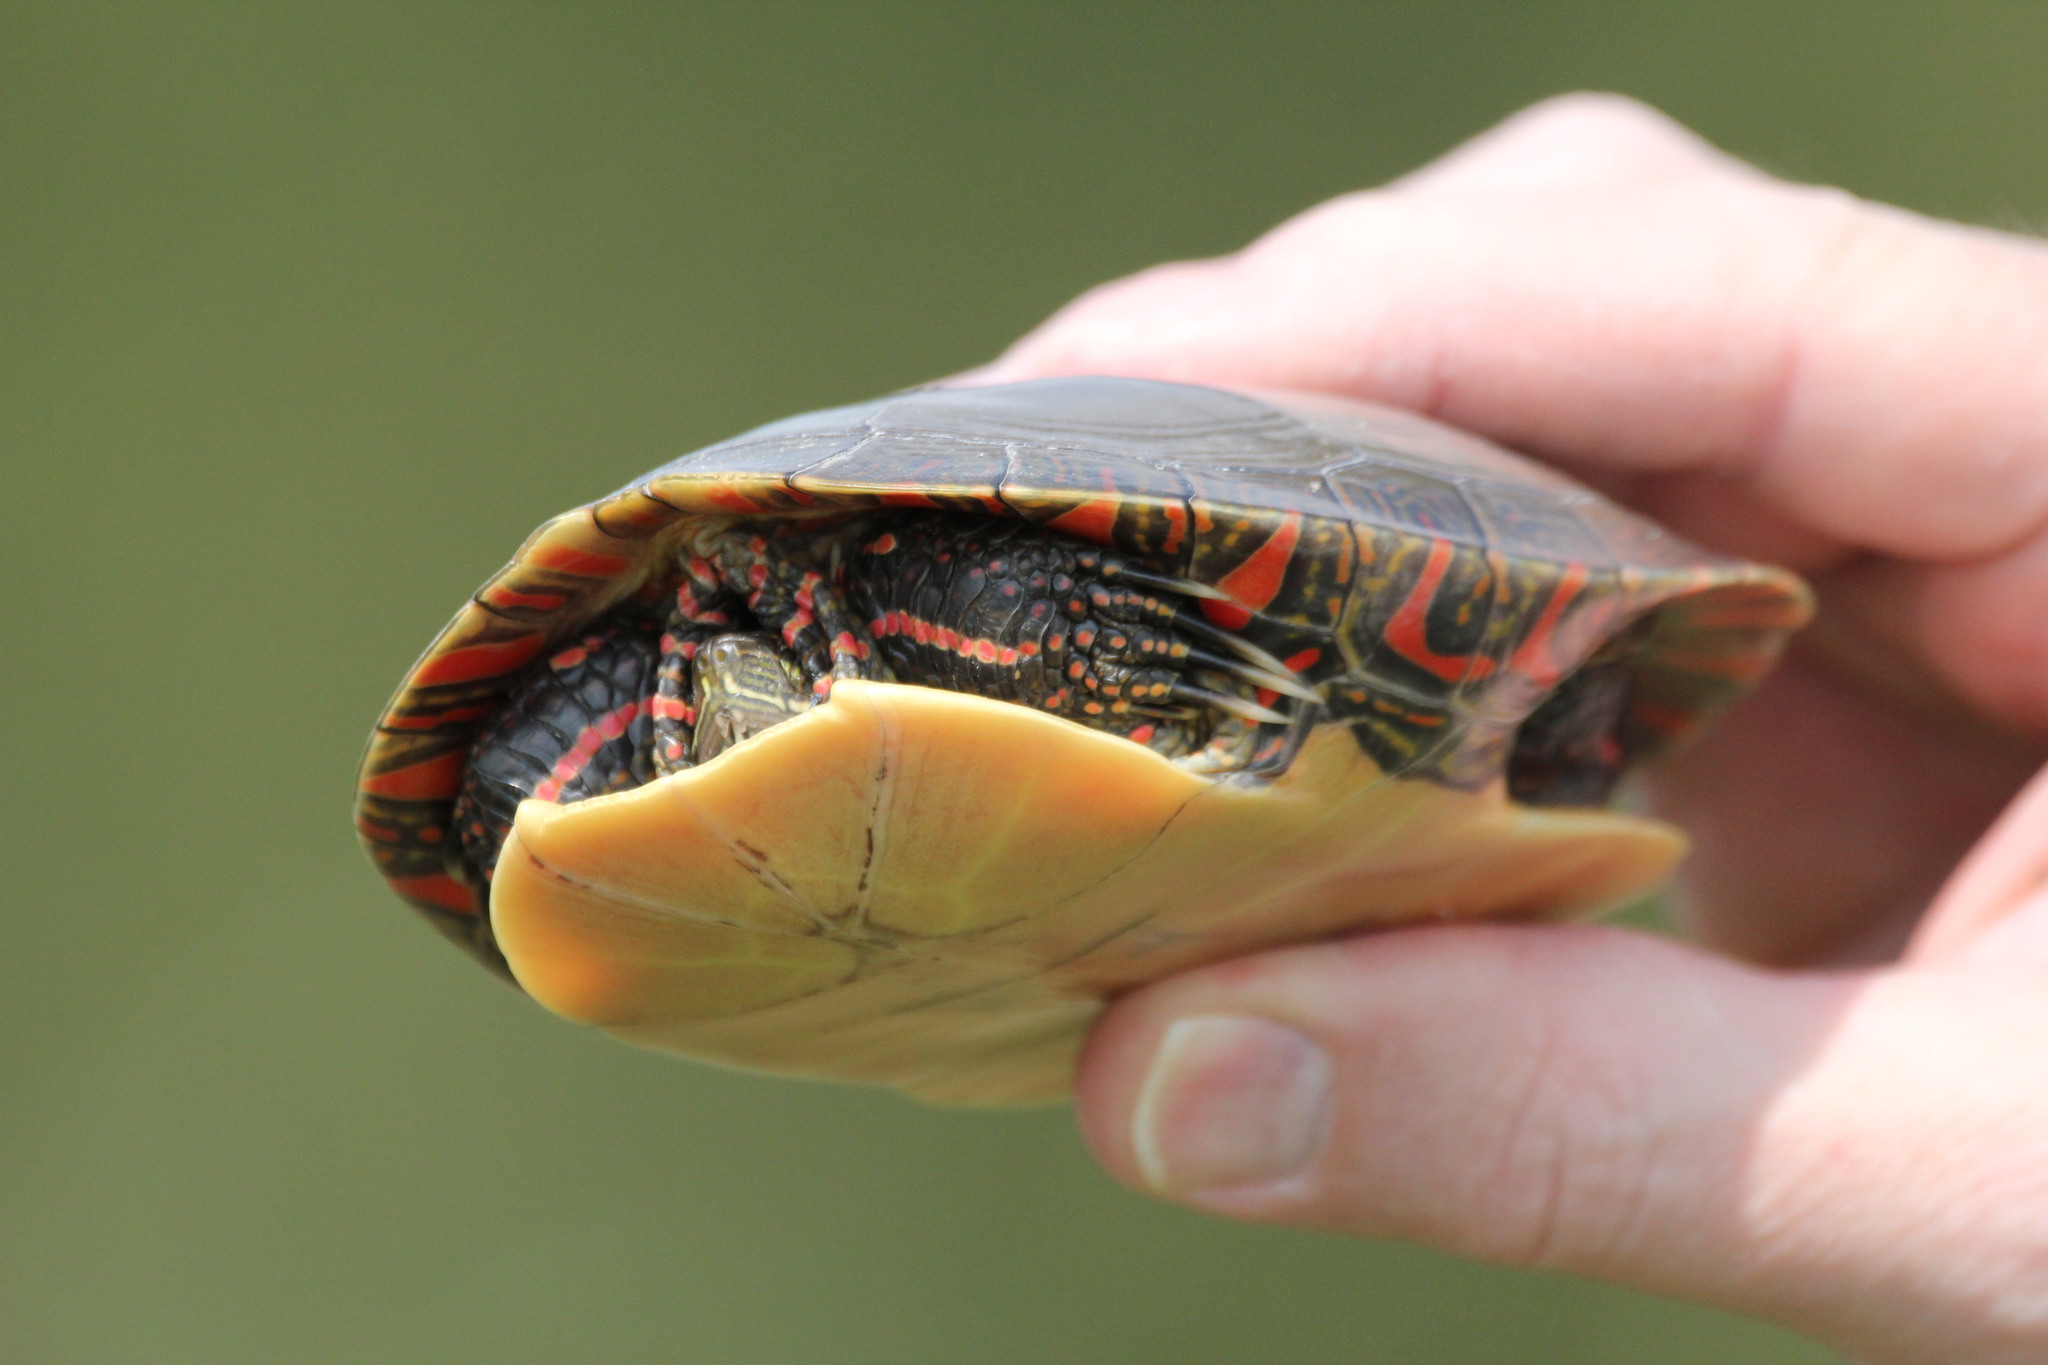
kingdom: Animalia
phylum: Chordata
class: Testudines
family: Emydidae
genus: Chrysemys
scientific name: Chrysemys picta
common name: Painted turtle
